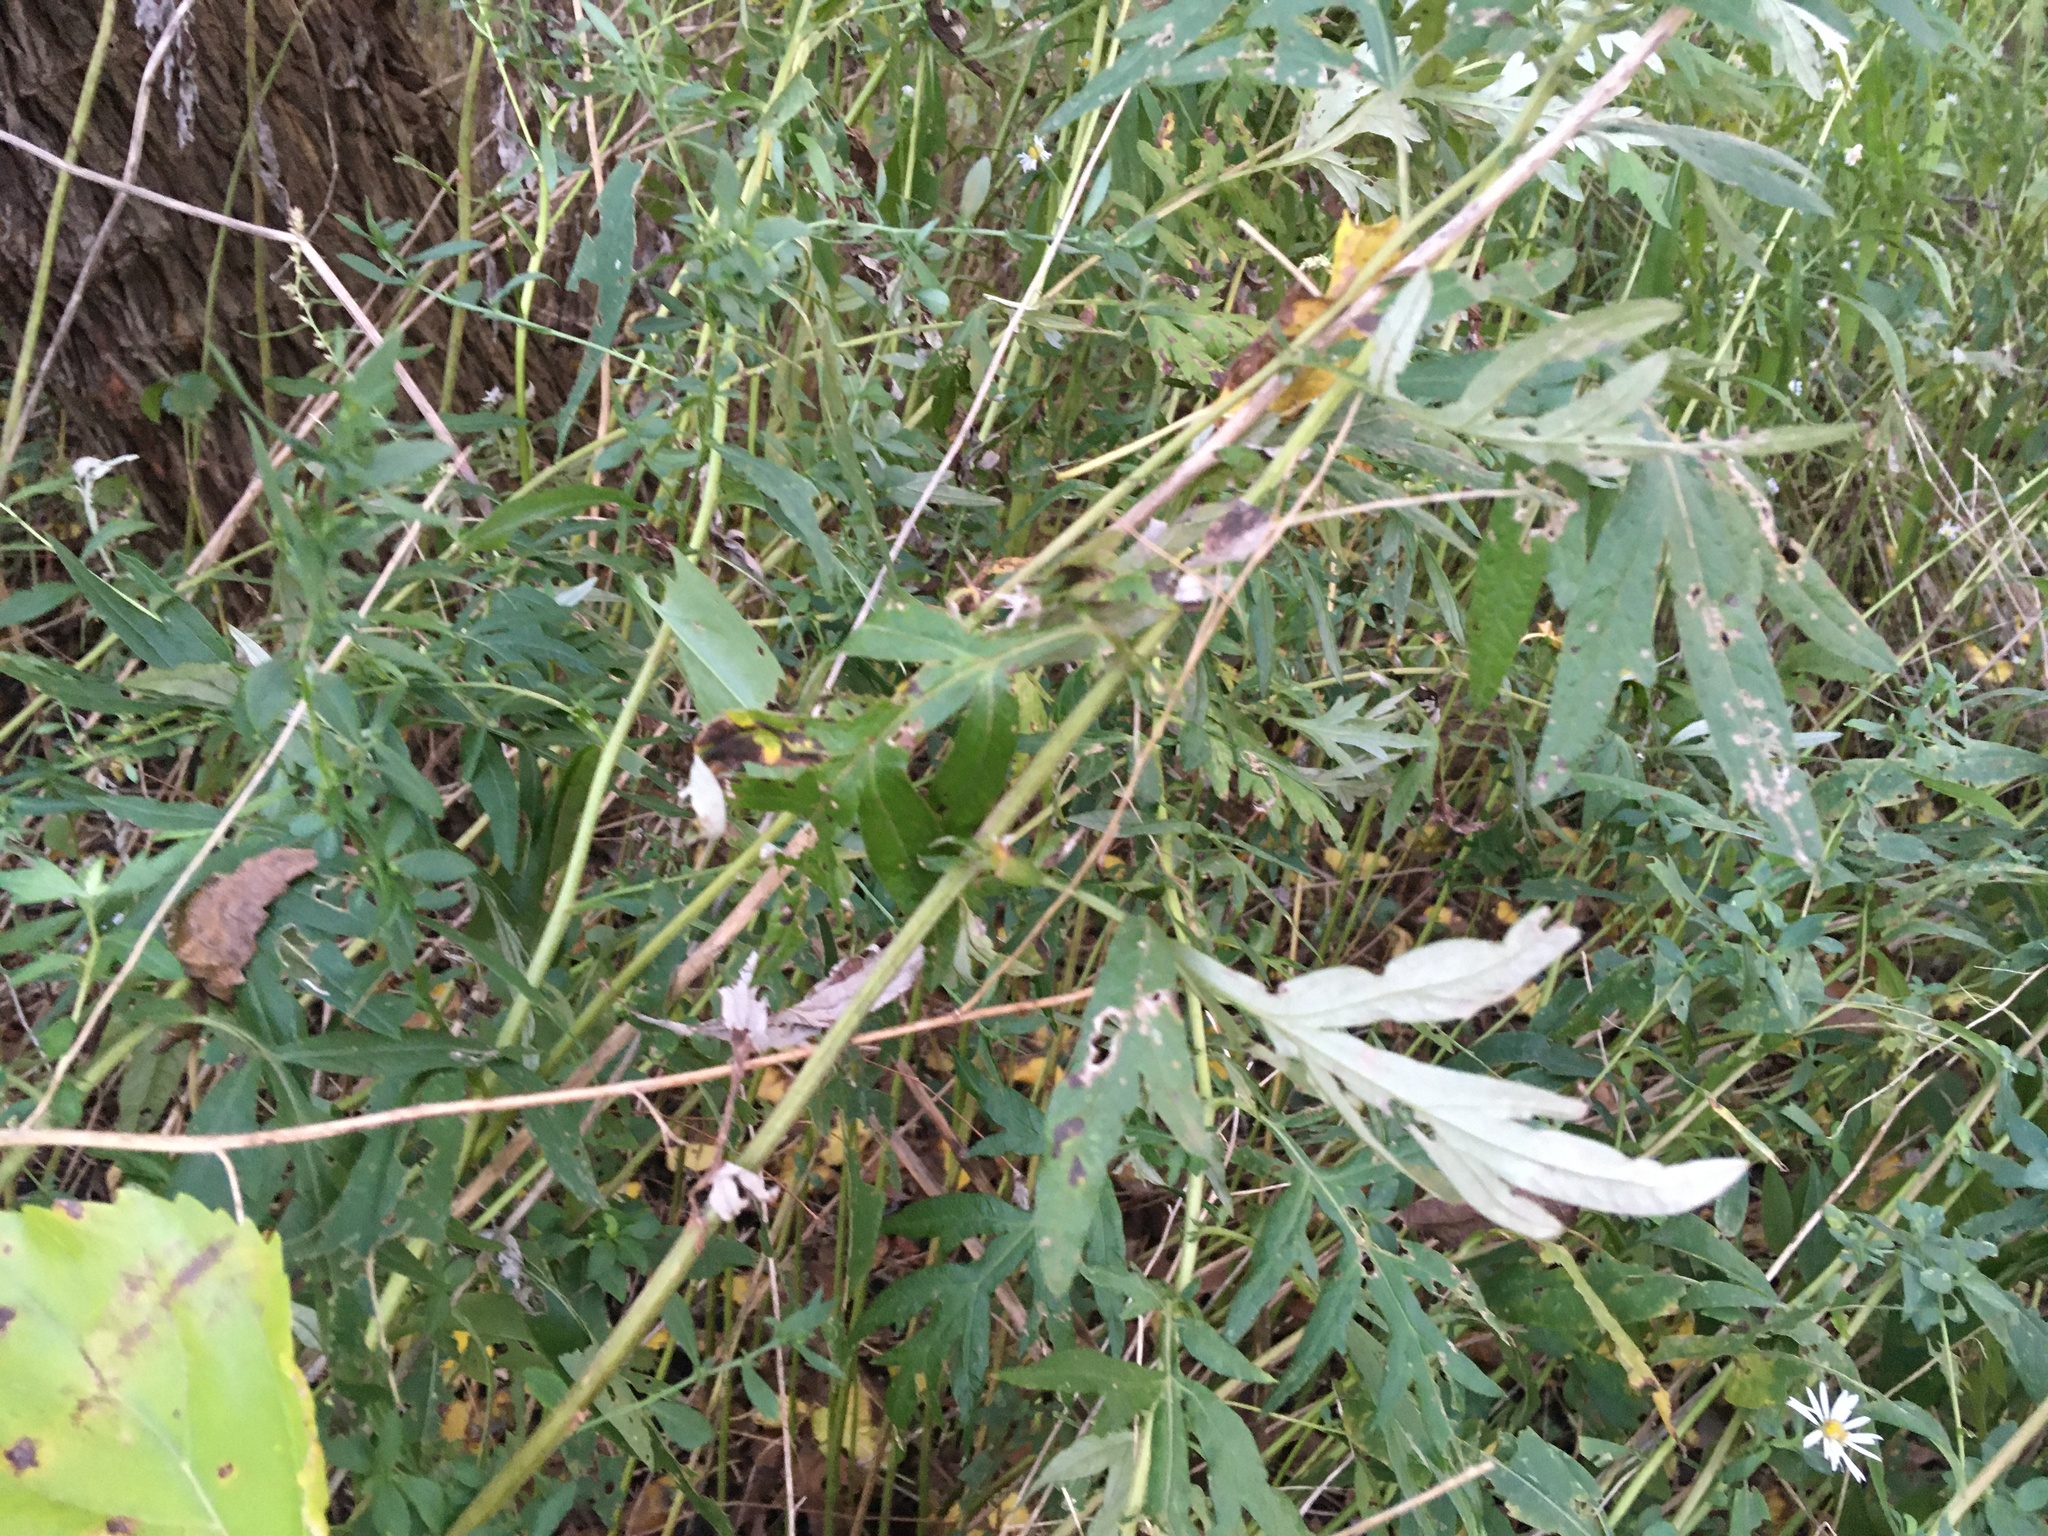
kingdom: Plantae
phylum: Tracheophyta
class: Magnoliopsida
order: Asterales
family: Asteraceae
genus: Artemisia
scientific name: Artemisia vulgaris
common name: Mugwort
